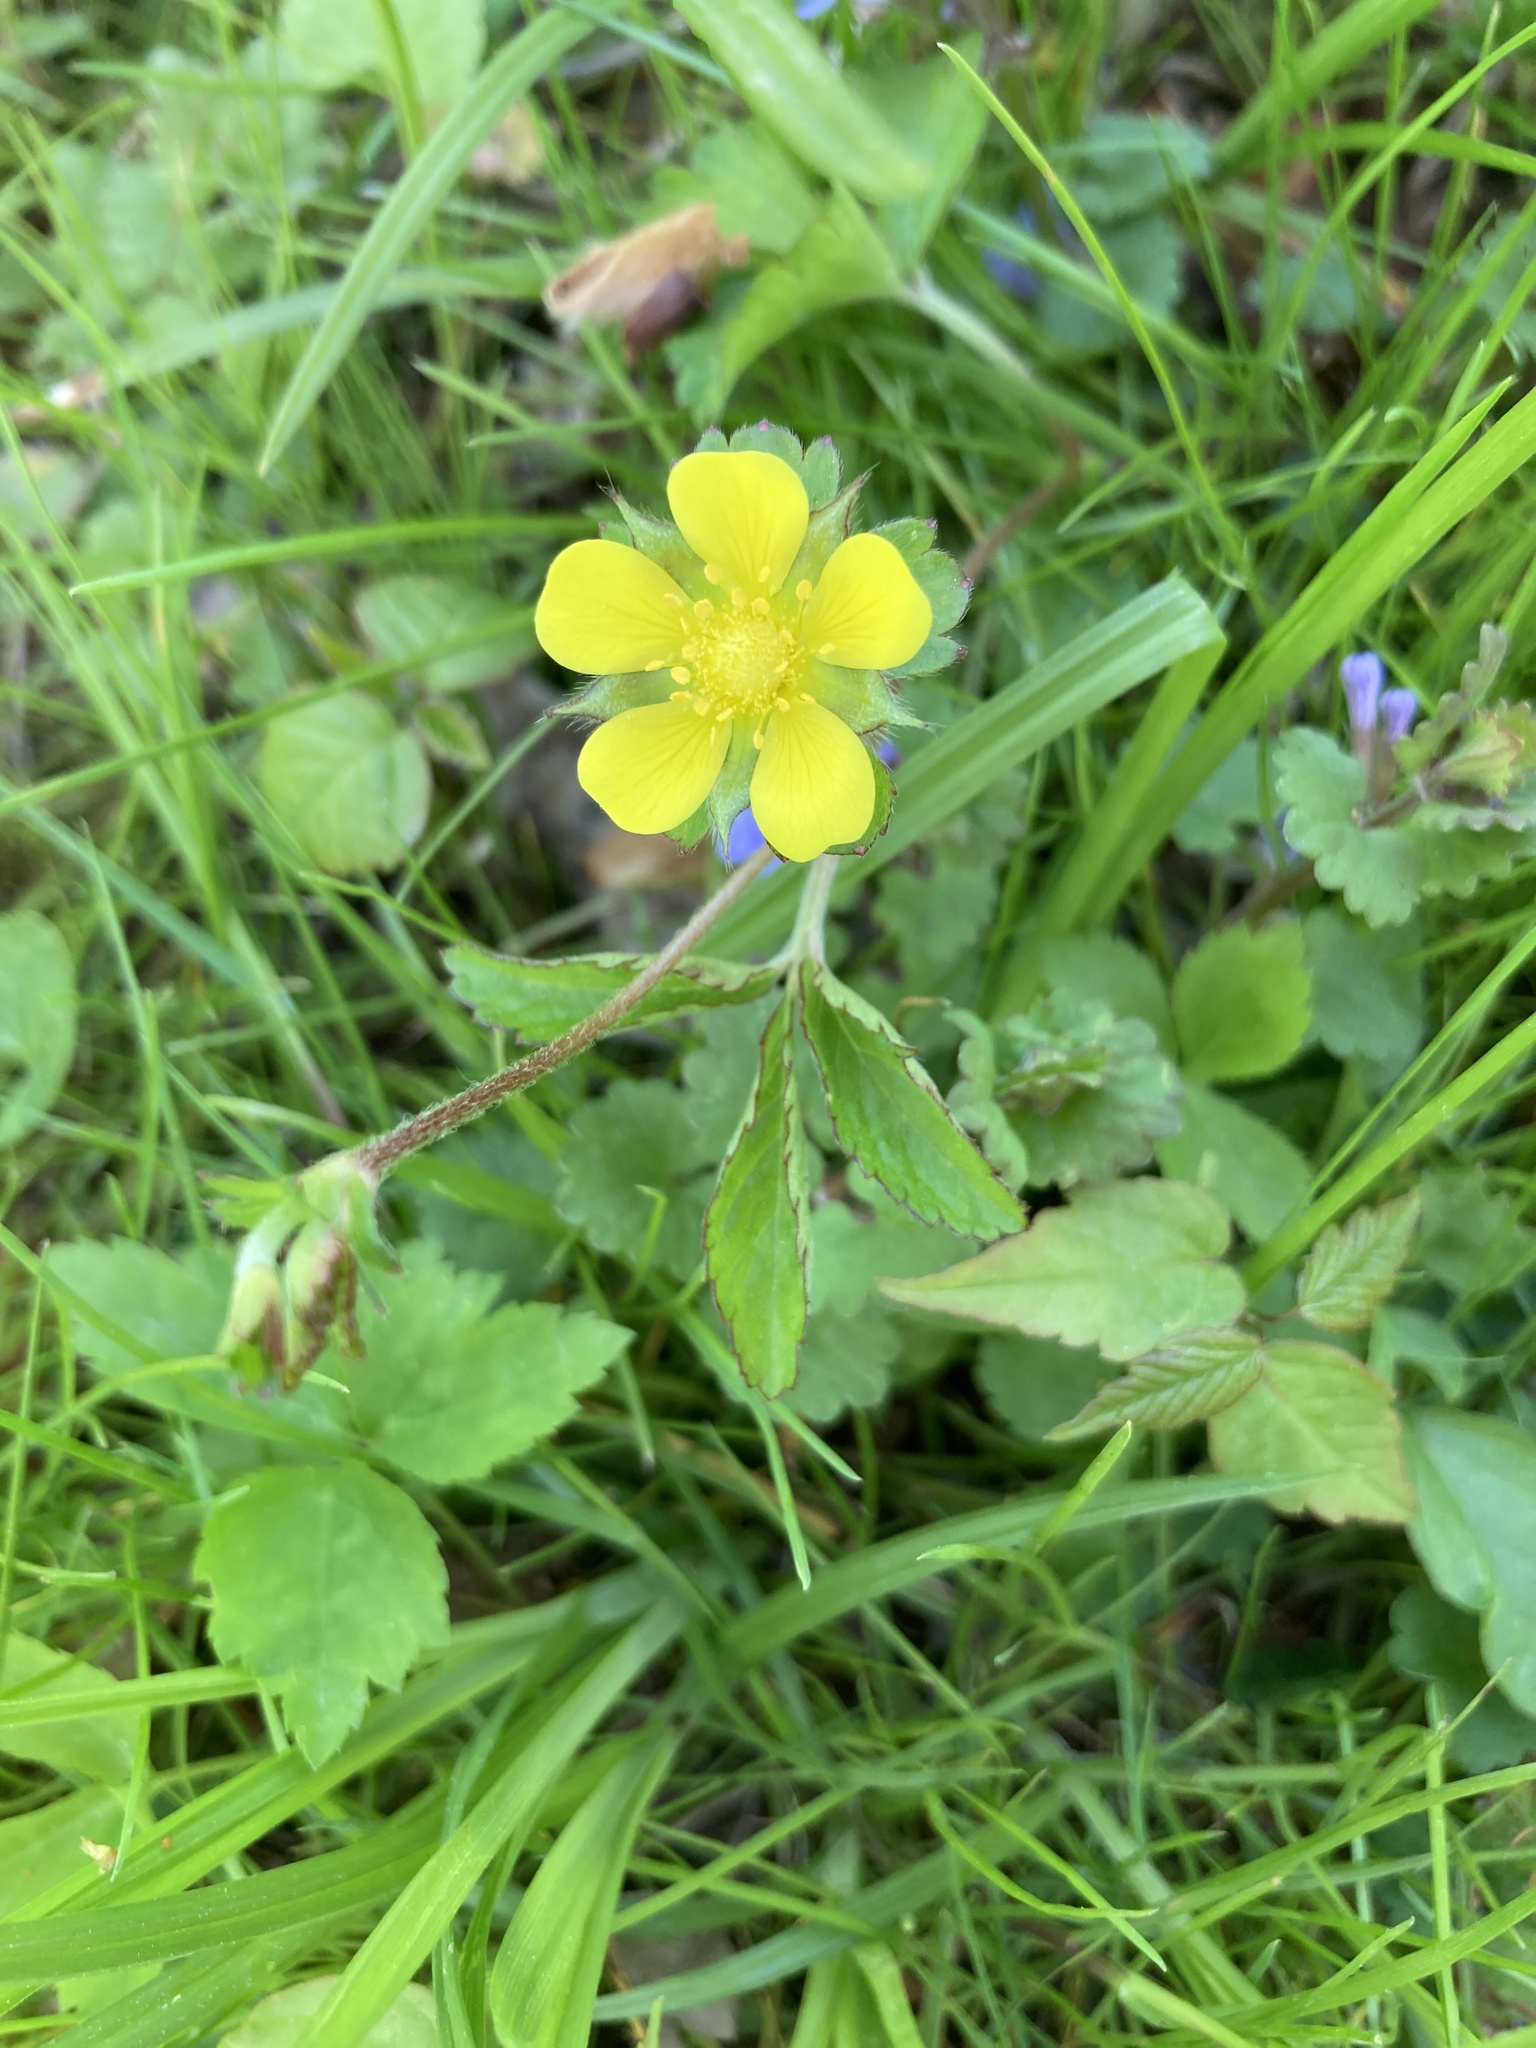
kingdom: Plantae
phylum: Tracheophyta
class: Magnoliopsida
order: Rosales
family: Rosaceae
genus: Potentilla
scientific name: Potentilla indica
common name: Yellow-flowered strawberry
